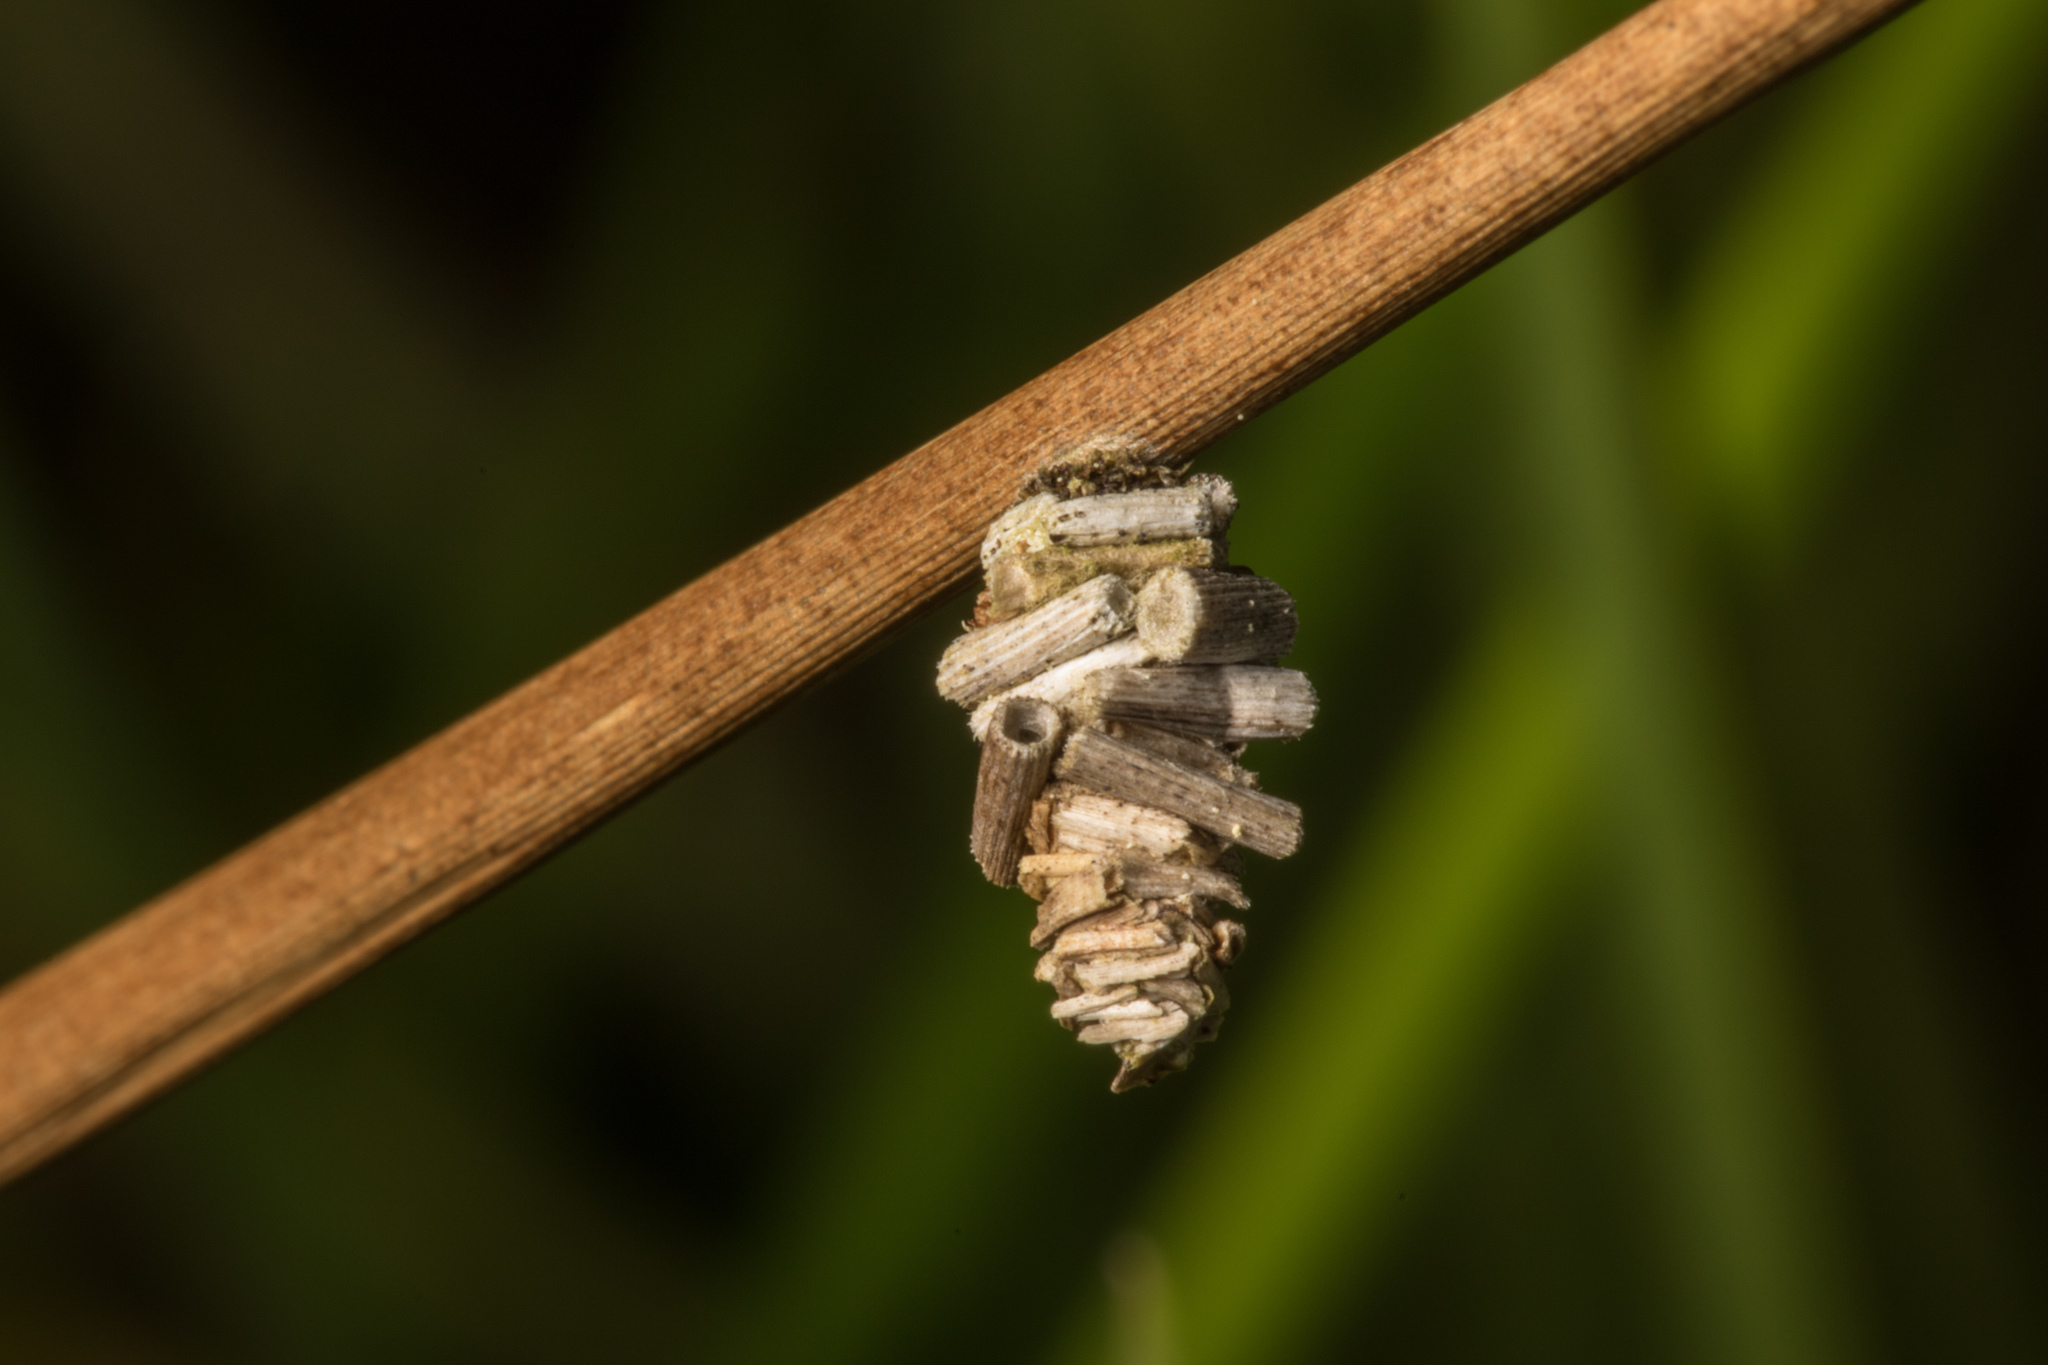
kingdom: Animalia
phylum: Arthropoda
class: Insecta
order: Lepidoptera
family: Psychidae
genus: Lepidoscia
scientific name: Lepidoscia lainodes
